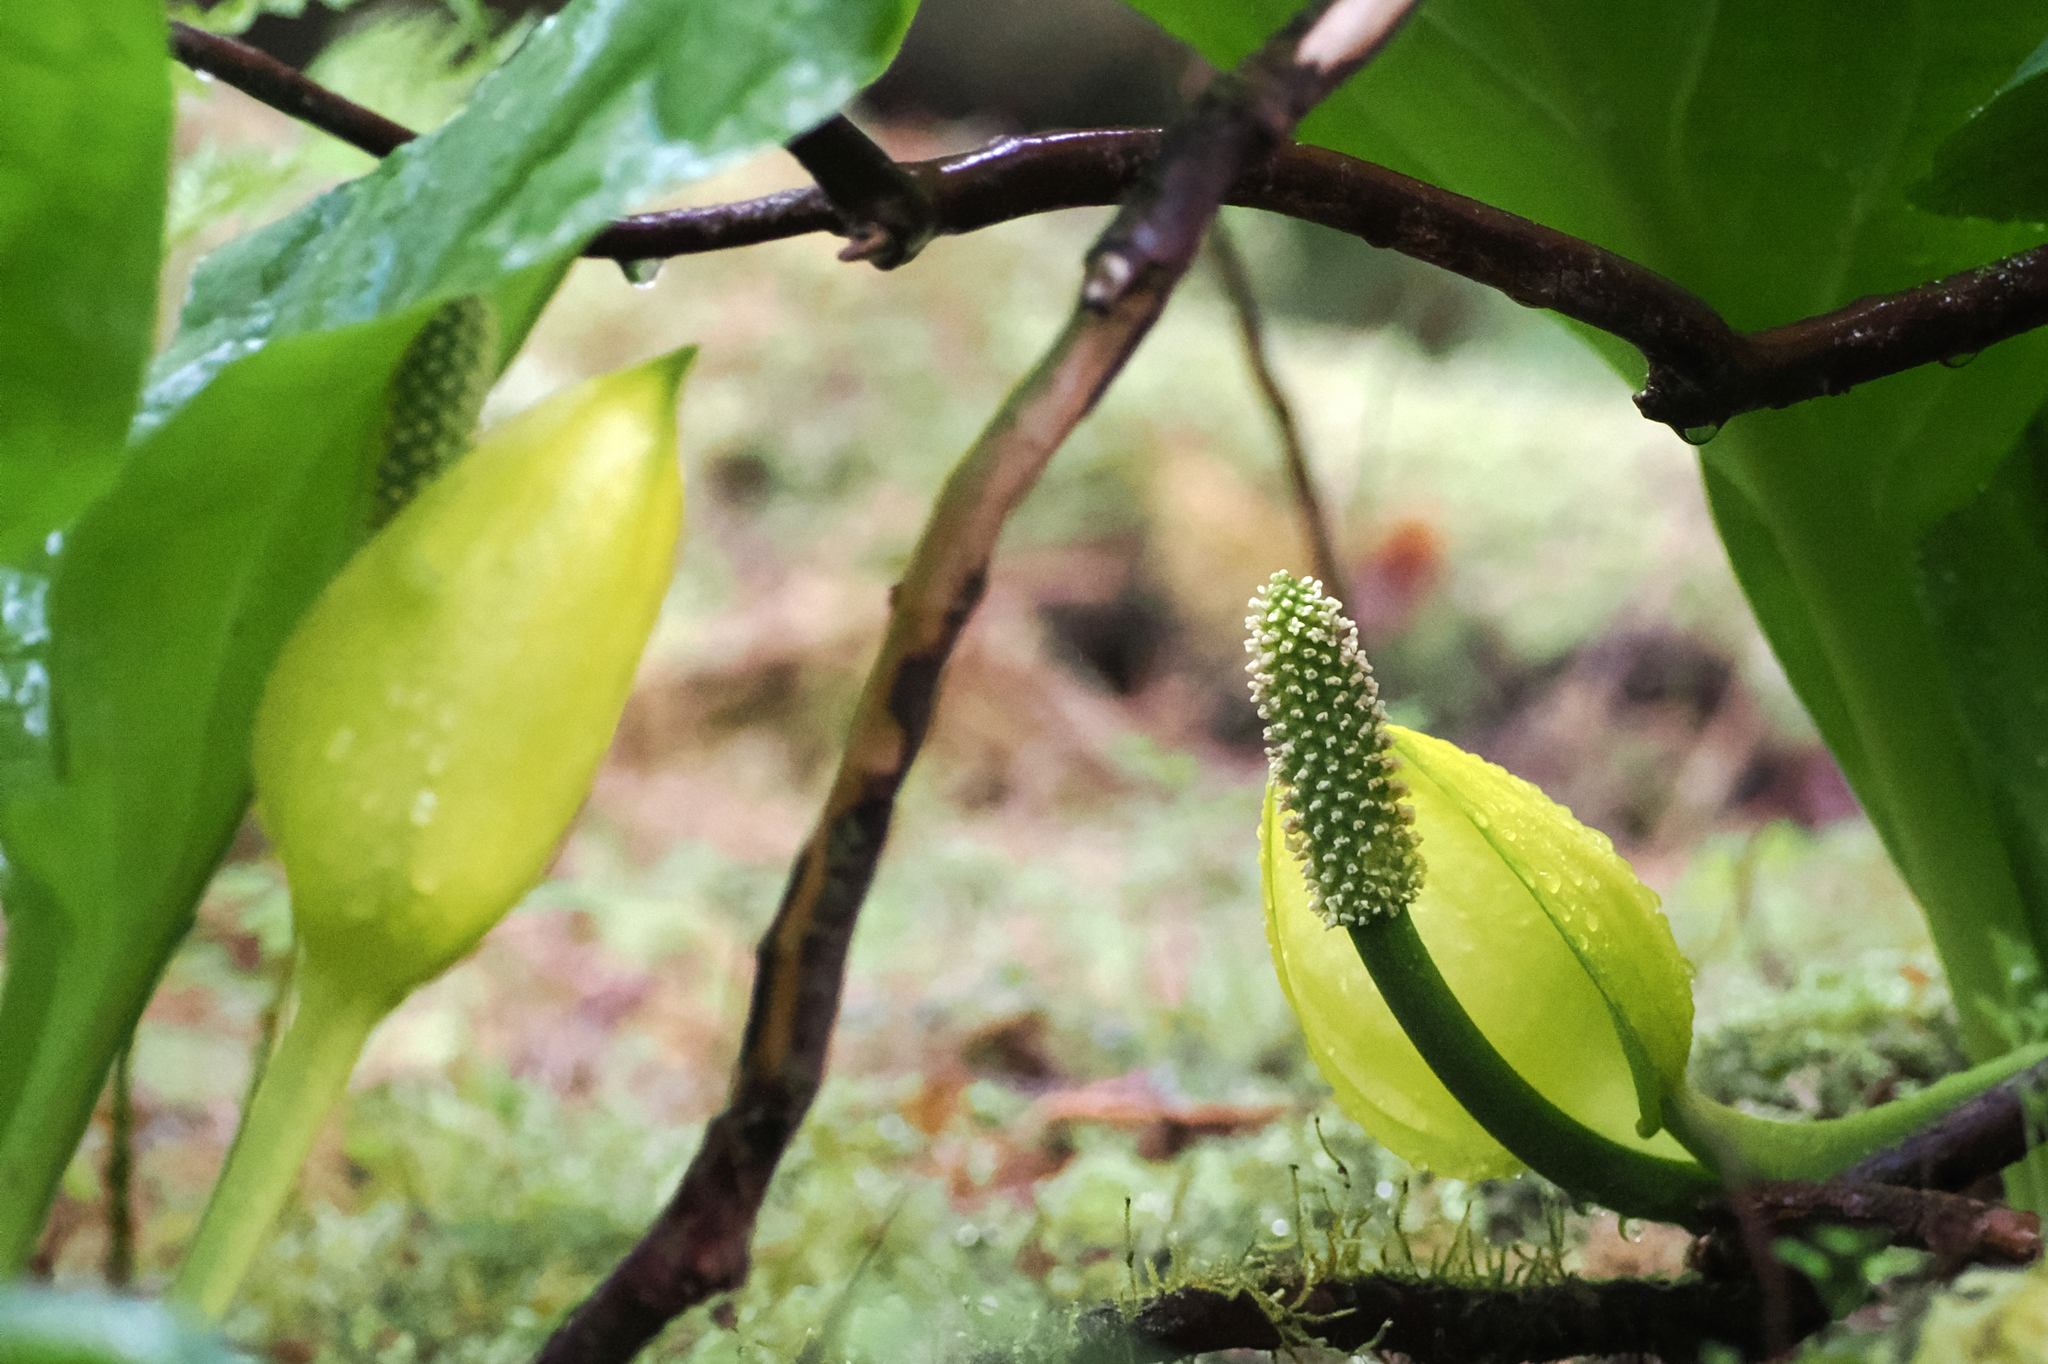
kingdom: Plantae
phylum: Tracheophyta
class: Liliopsida
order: Alismatales
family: Araceae
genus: Lysichiton
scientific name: Lysichiton americanus
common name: American skunk cabbage
